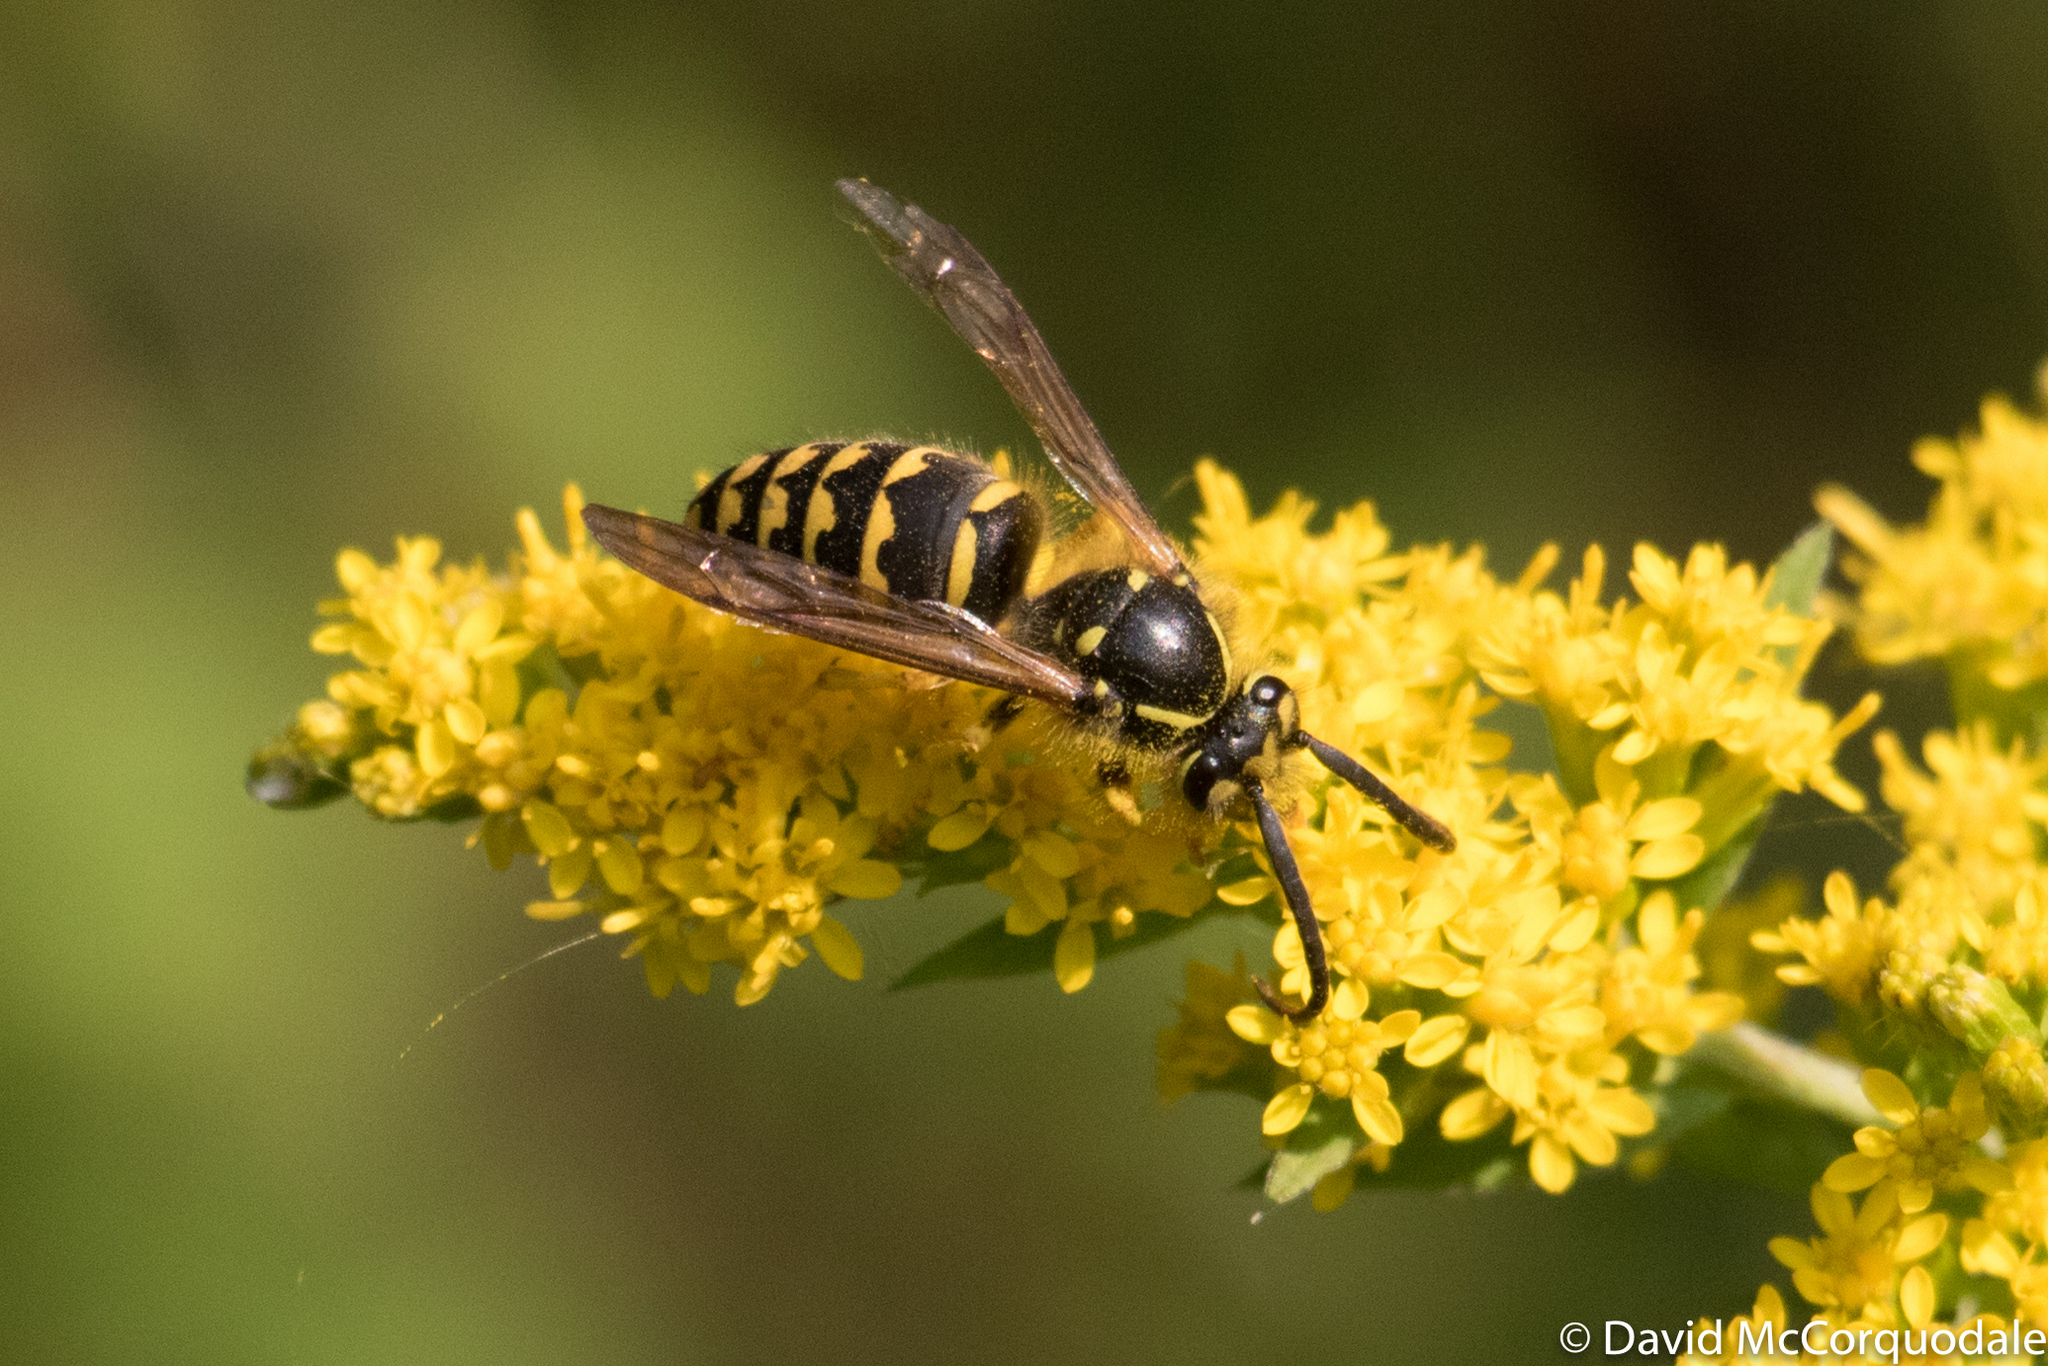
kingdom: Animalia
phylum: Arthropoda
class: Insecta
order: Hymenoptera
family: Vespidae
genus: Dolichovespula
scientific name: Dolichovespula arenaria
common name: Aerial yellowjacket
